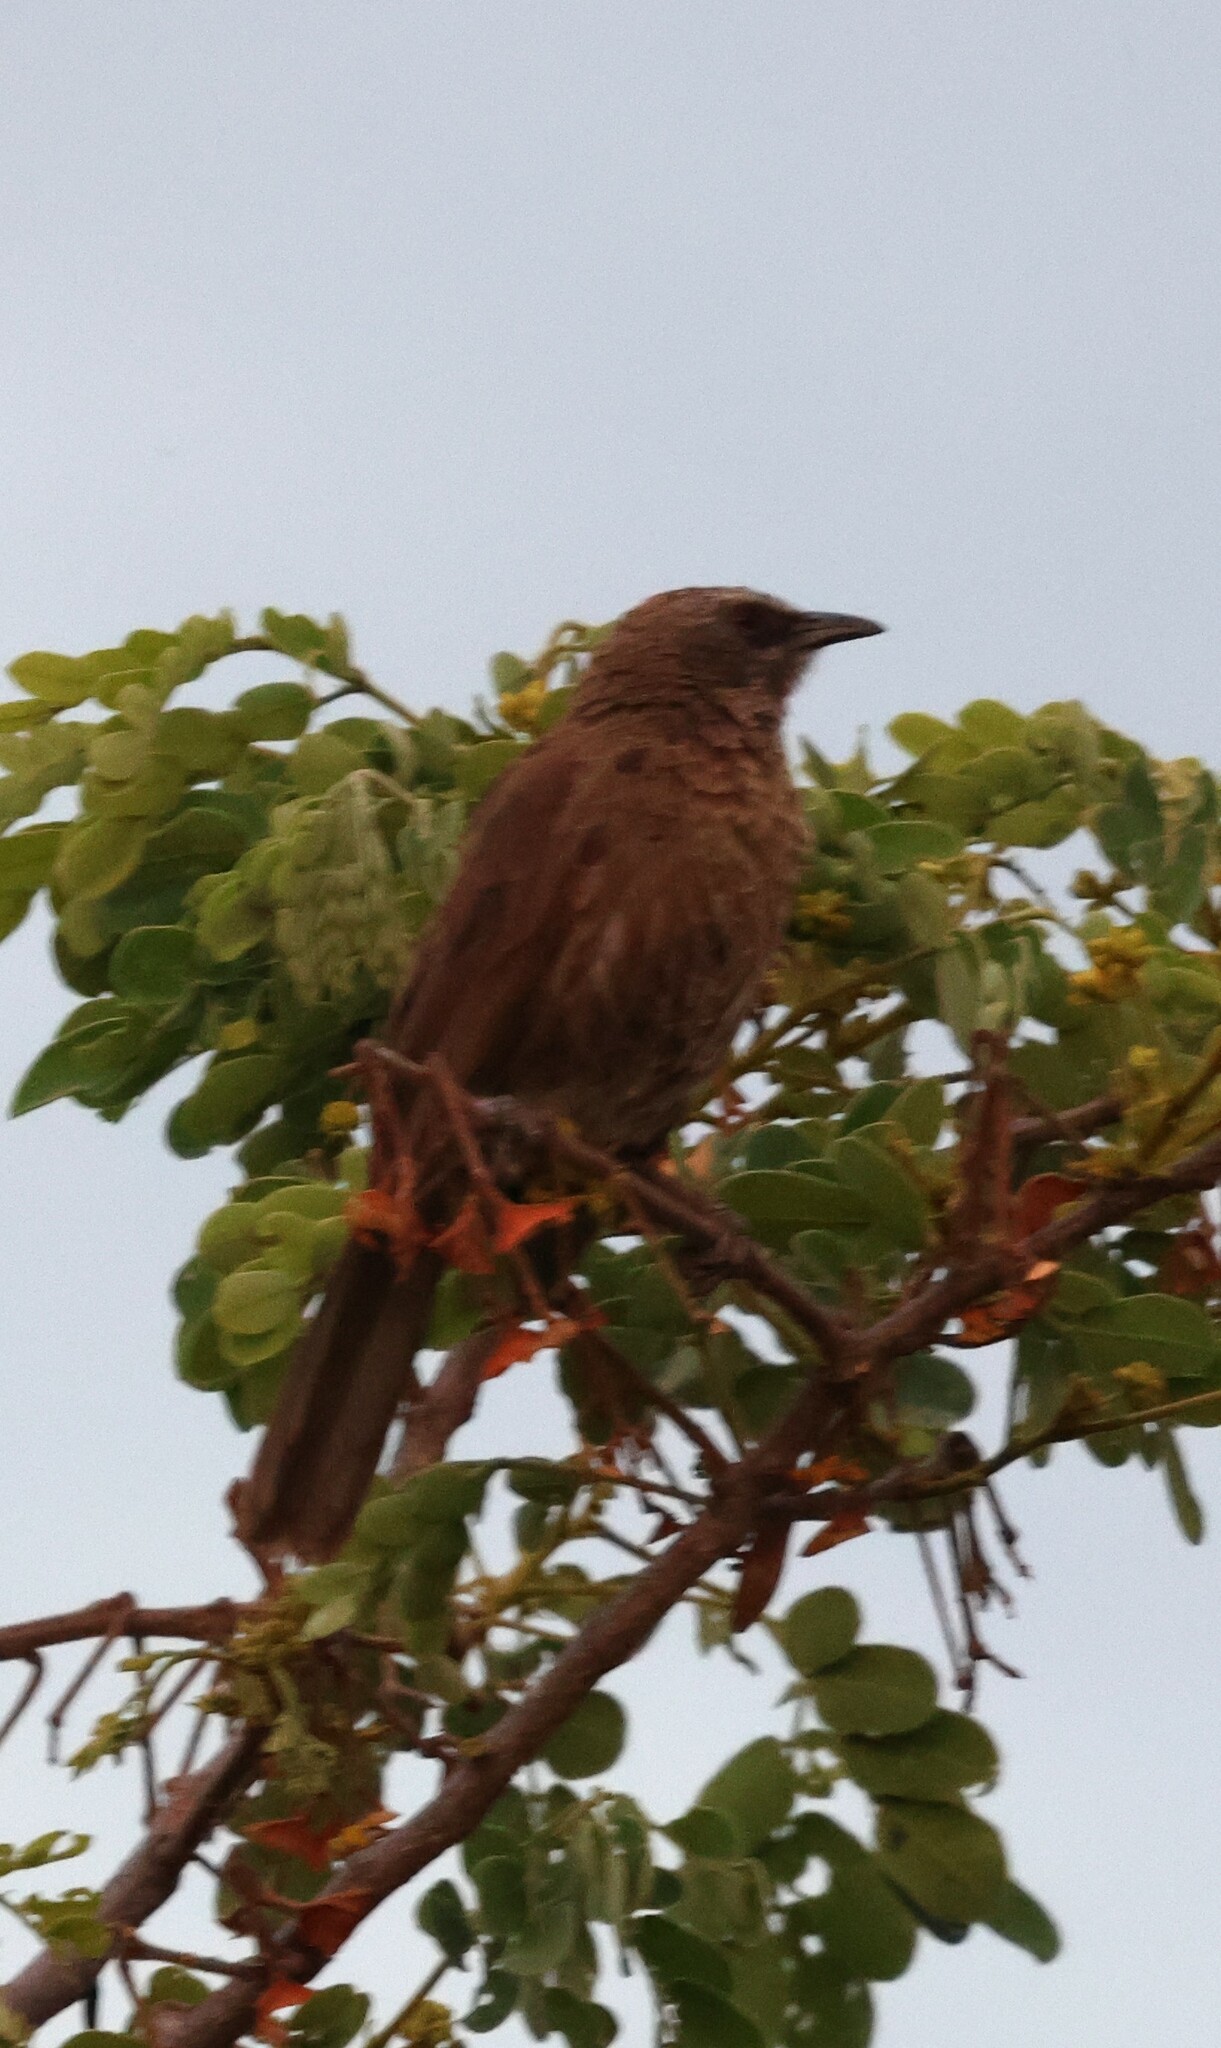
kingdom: Animalia
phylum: Chordata
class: Aves
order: Passeriformes
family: Leiothrichidae
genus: Turdoides
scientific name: Turdoides hartlaubii
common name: Hartlaub's babbler
